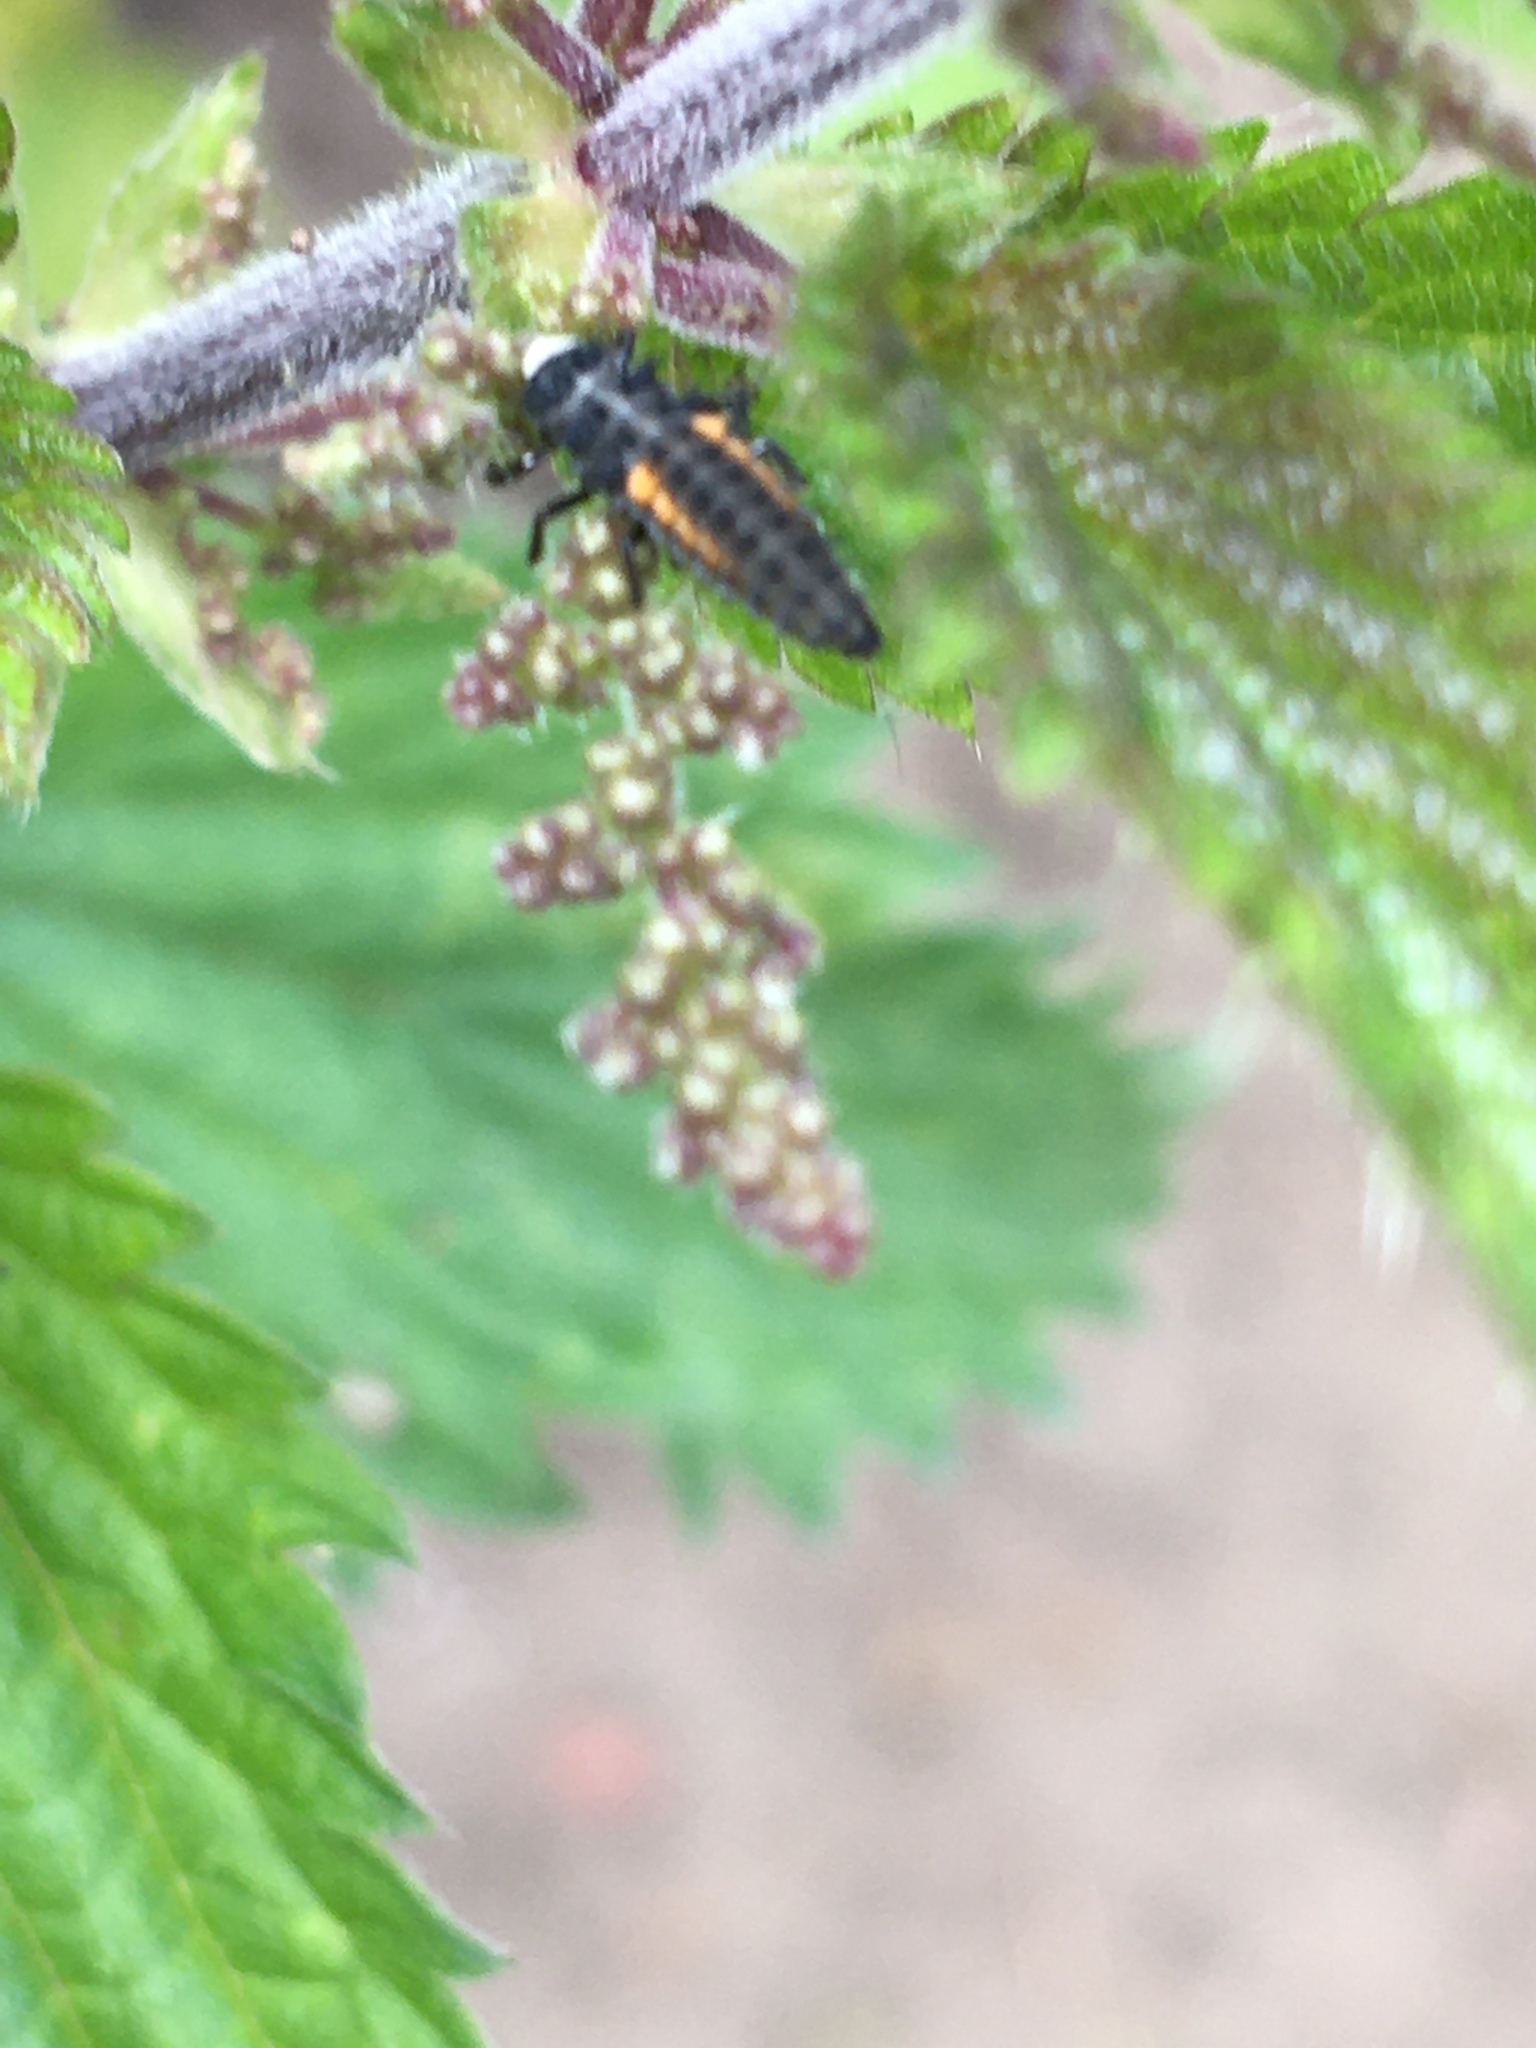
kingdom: Animalia
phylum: Arthropoda
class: Insecta
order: Coleoptera
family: Coccinellidae
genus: Harmonia
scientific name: Harmonia axyridis
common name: Harlequin ladybird
